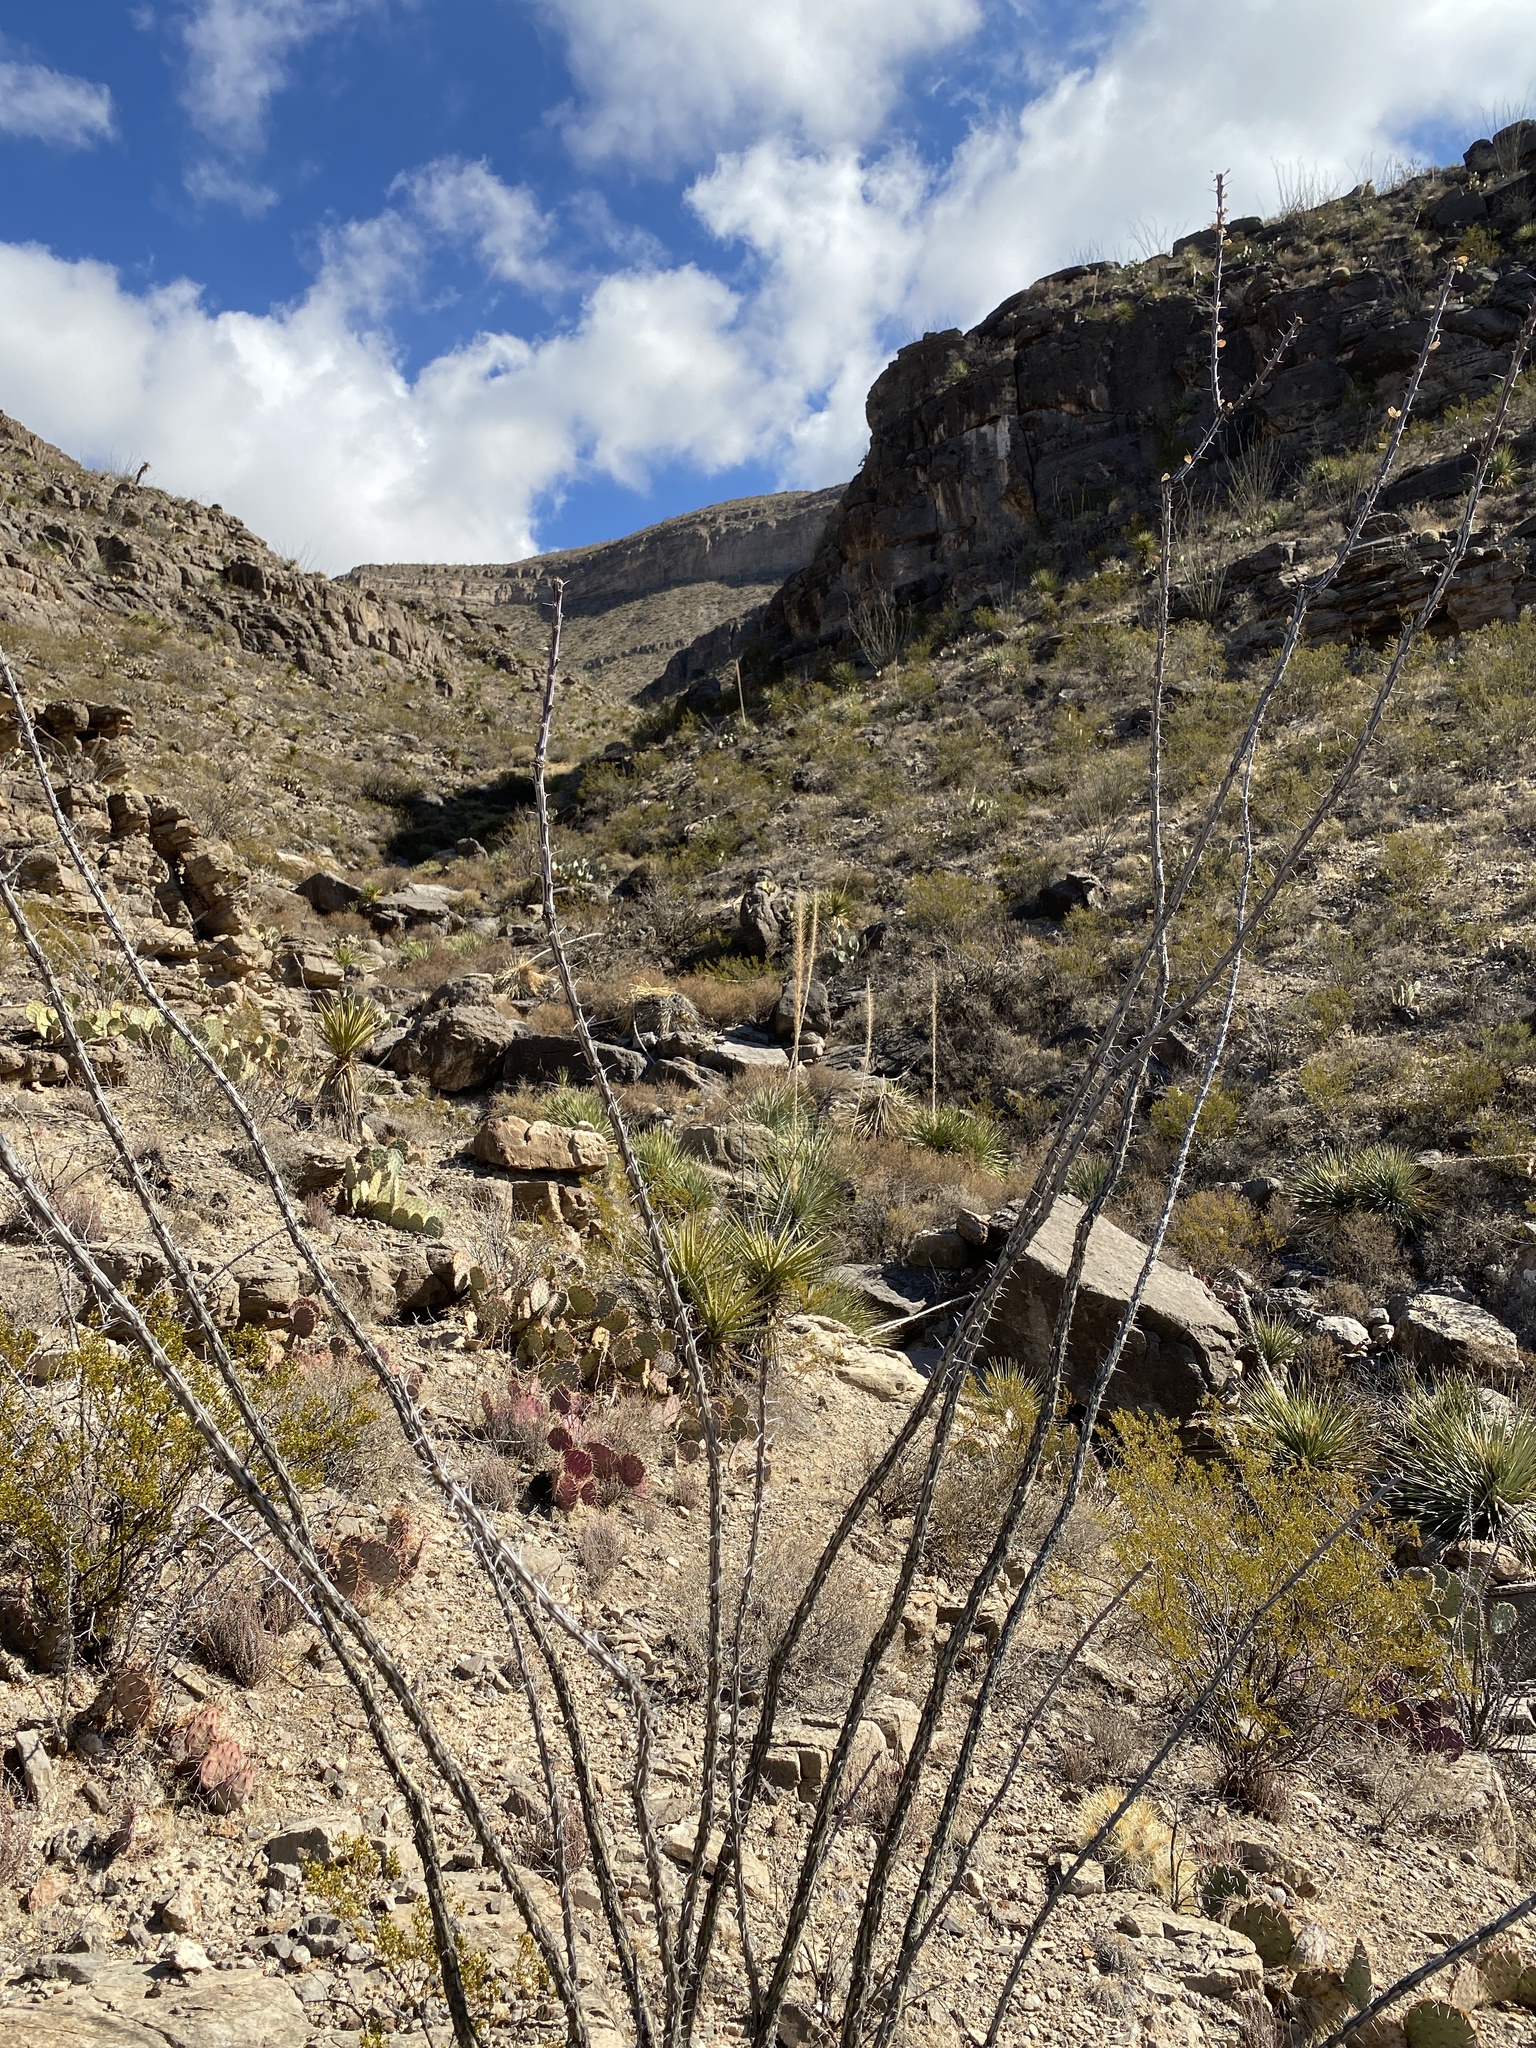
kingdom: Plantae
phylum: Tracheophyta
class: Magnoliopsida
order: Ericales
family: Fouquieriaceae
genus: Fouquieria
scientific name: Fouquieria splendens
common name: Vine-cactus
